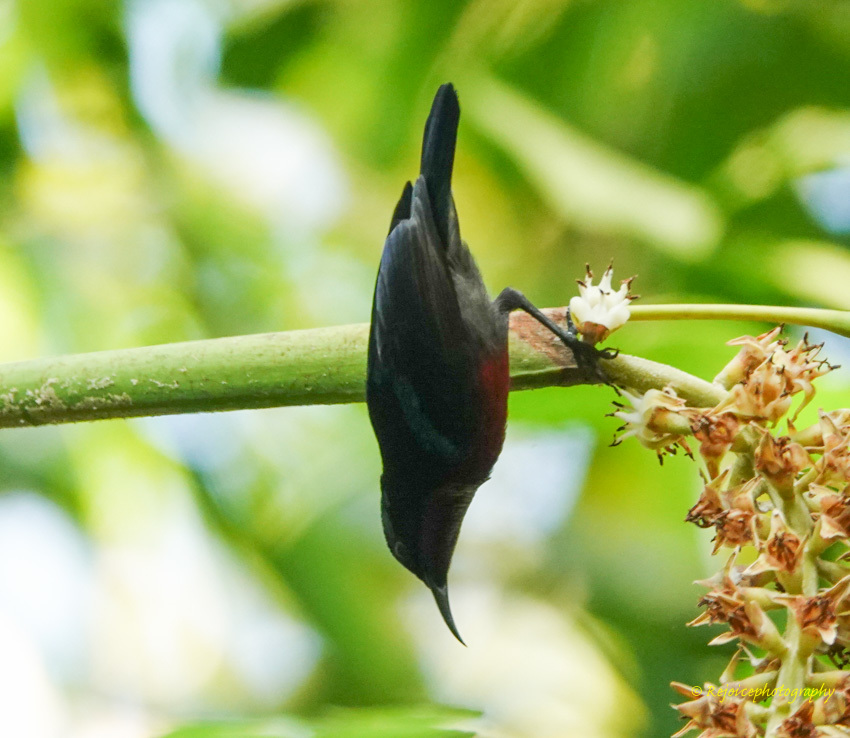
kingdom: Animalia
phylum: Chordata
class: Aves
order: Passeriformes
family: Nectariniidae
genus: Leptocoma
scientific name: Leptocoma brasiliana
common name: Van hasselt's sunbird
